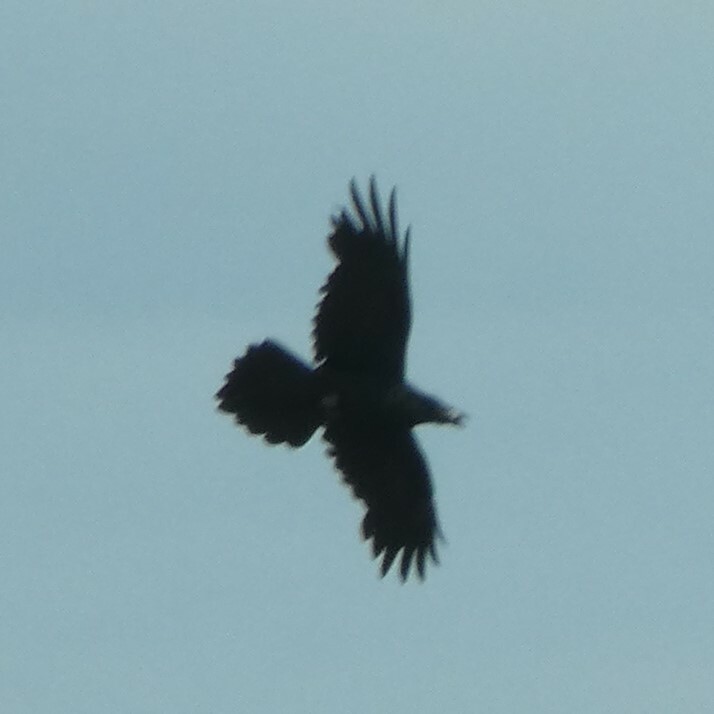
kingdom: Animalia
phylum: Chordata
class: Aves
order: Passeriformes
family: Corvidae
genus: Corvus
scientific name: Corvus corax
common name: Common raven
